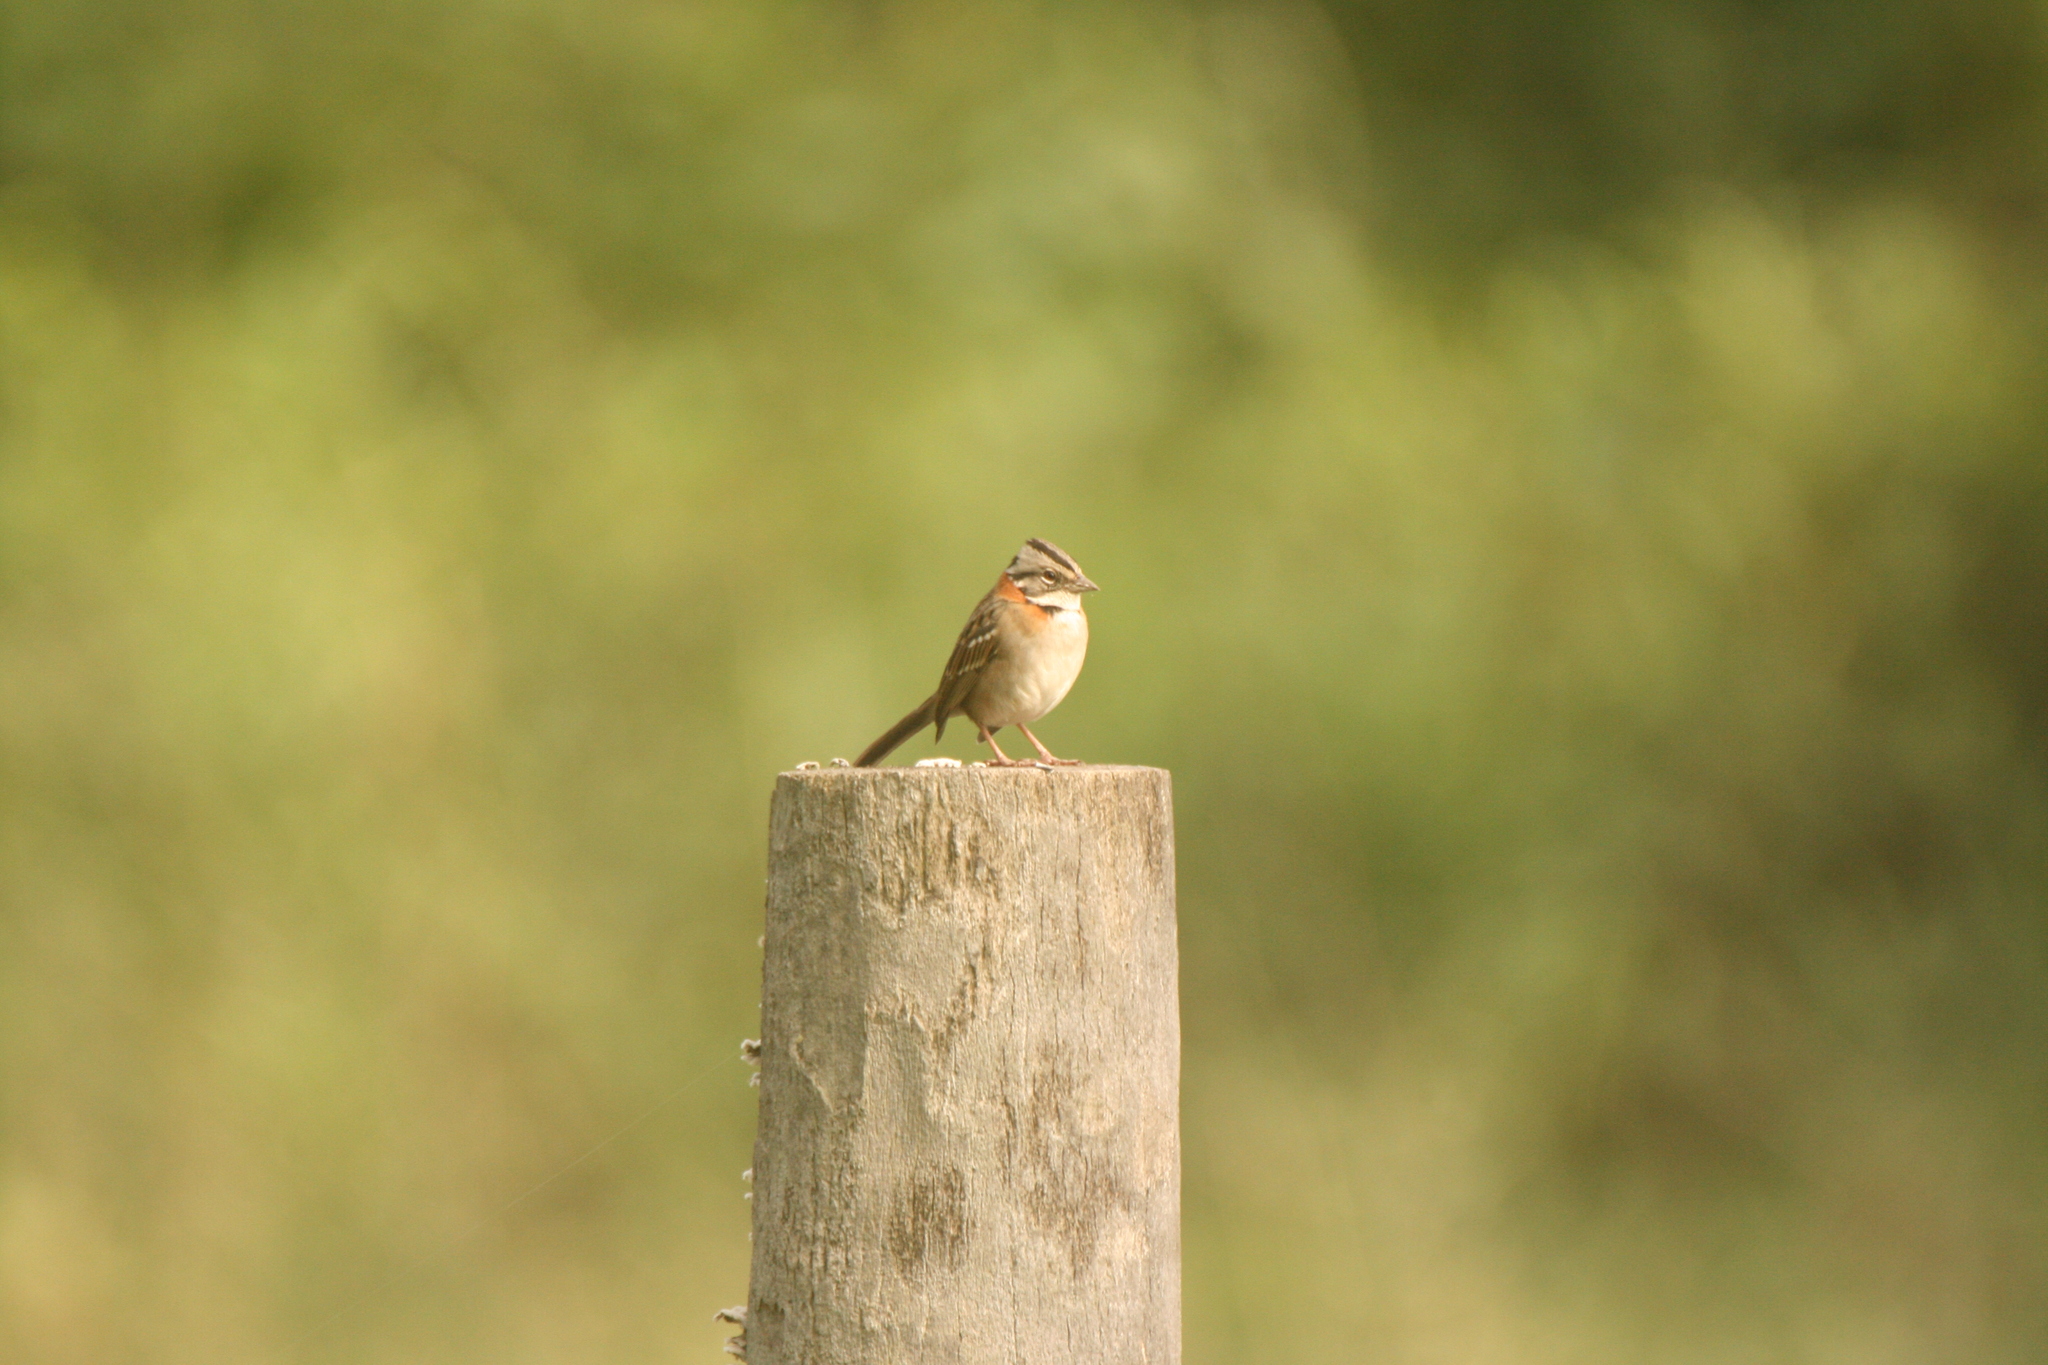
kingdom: Animalia
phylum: Chordata
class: Aves
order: Passeriformes
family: Passerellidae
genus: Zonotrichia
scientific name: Zonotrichia capensis
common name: Rufous-collared sparrow
